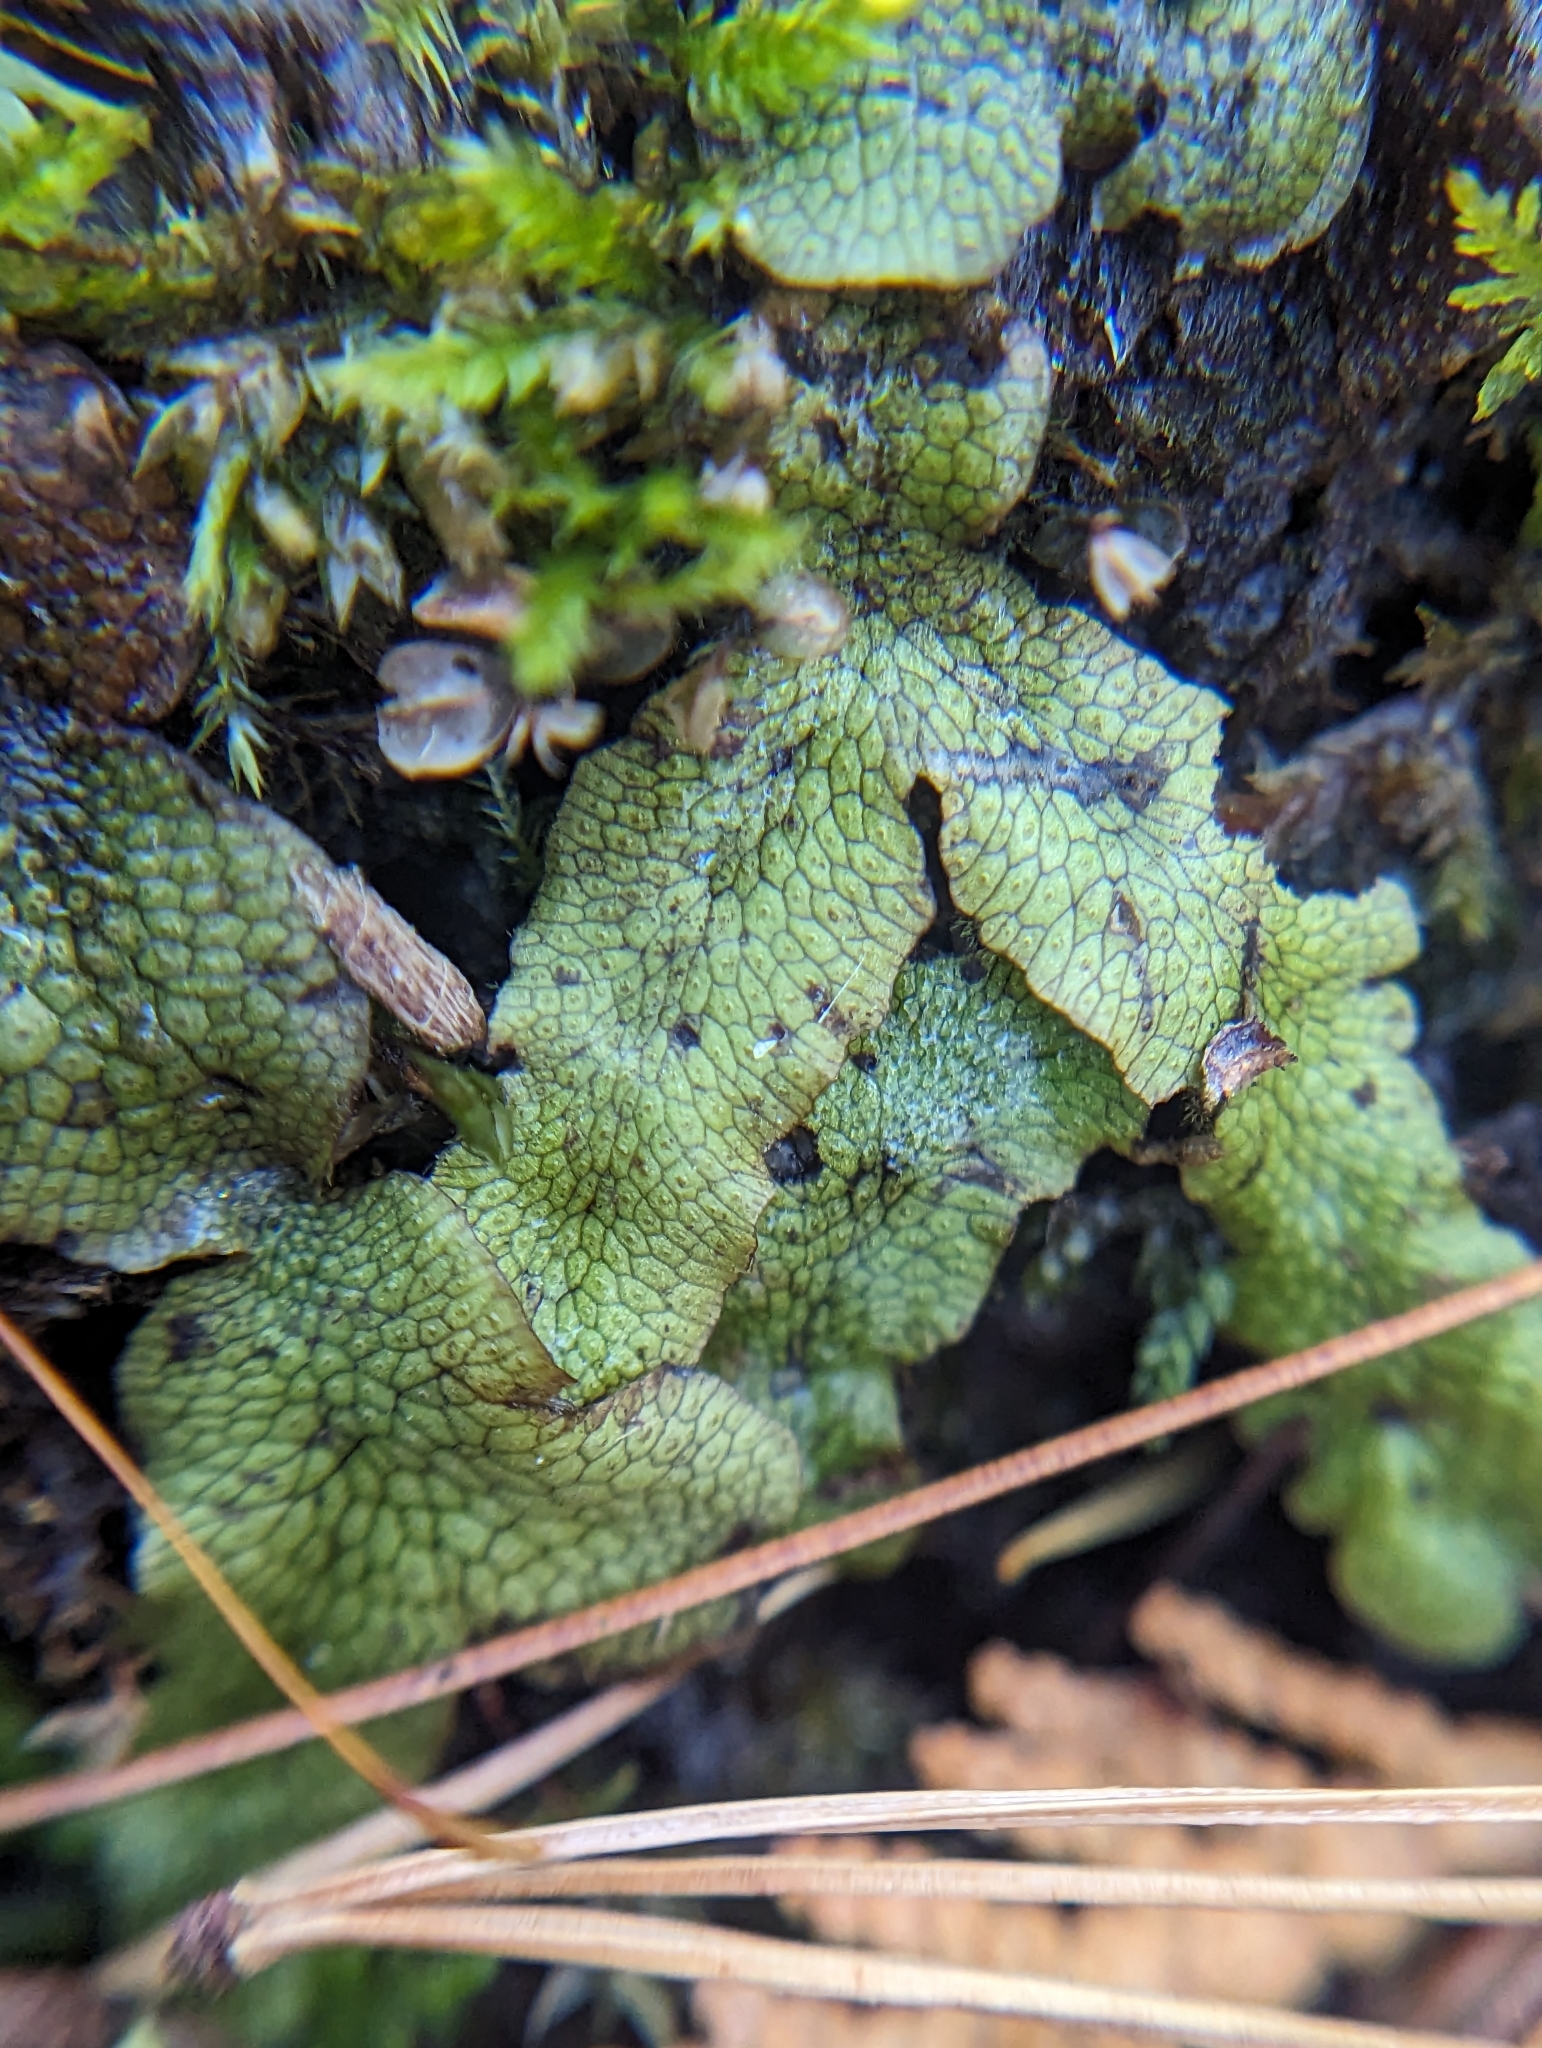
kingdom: Plantae
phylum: Marchantiophyta
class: Marchantiopsida
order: Marchantiales
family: Conocephalaceae
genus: Conocephalum
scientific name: Conocephalum salebrosum
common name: Cat-tongue liverwort
